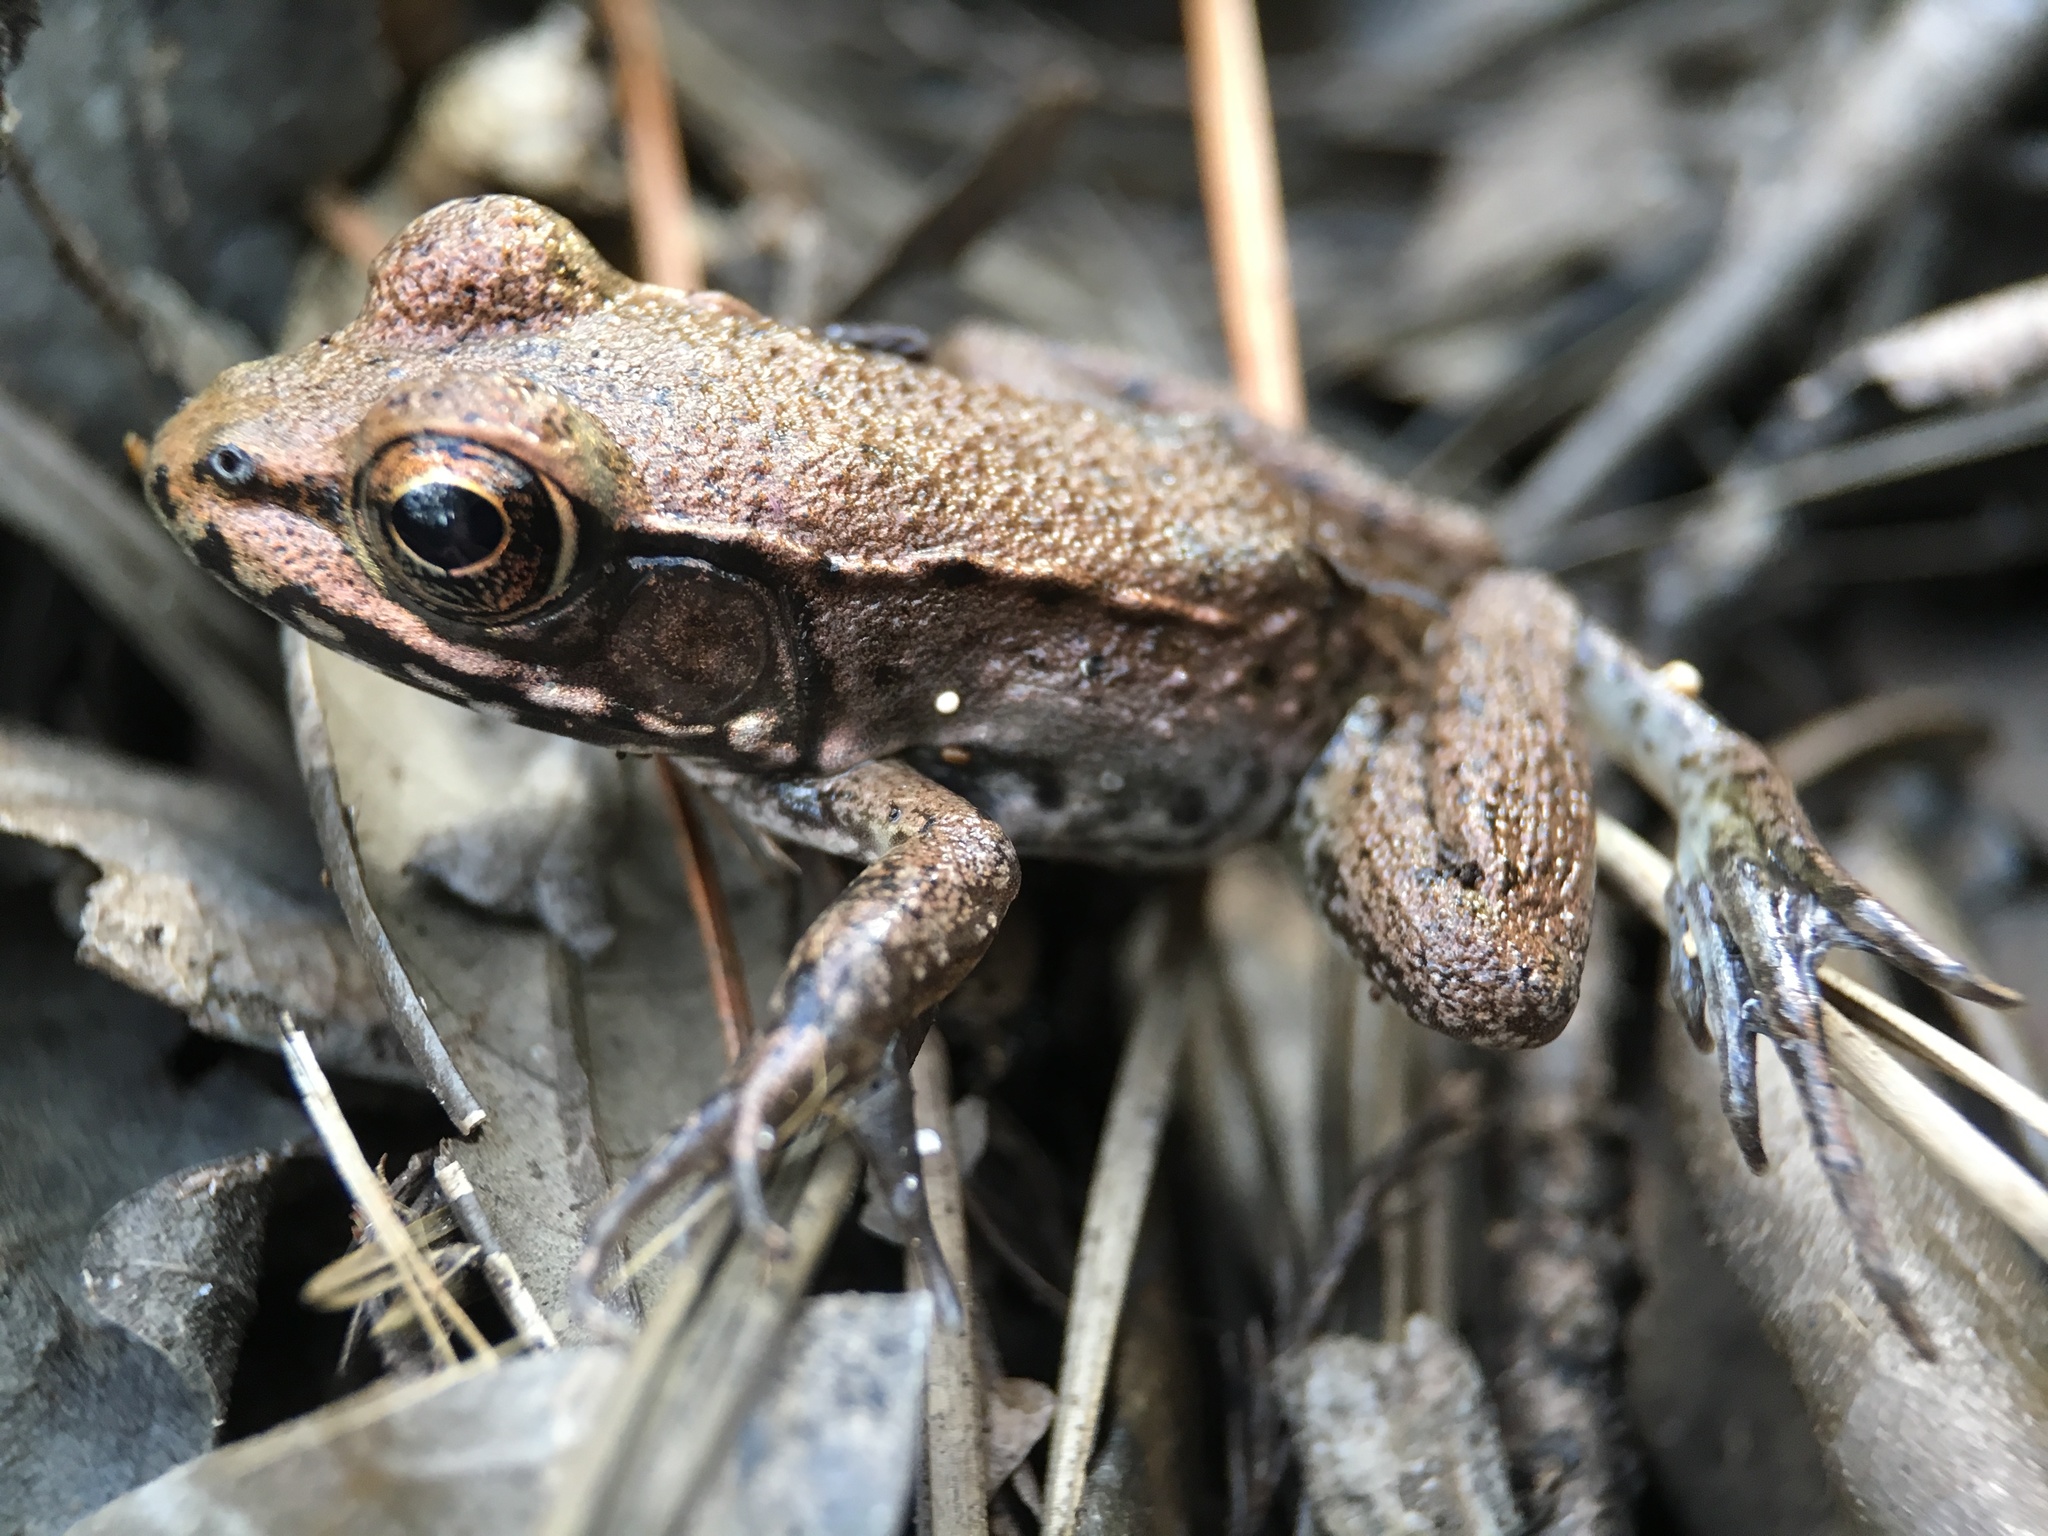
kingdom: Animalia
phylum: Chordata
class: Amphibia
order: Anura
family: Ranidae
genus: Lithobates
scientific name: Lithobates clamitans
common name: Green frog
